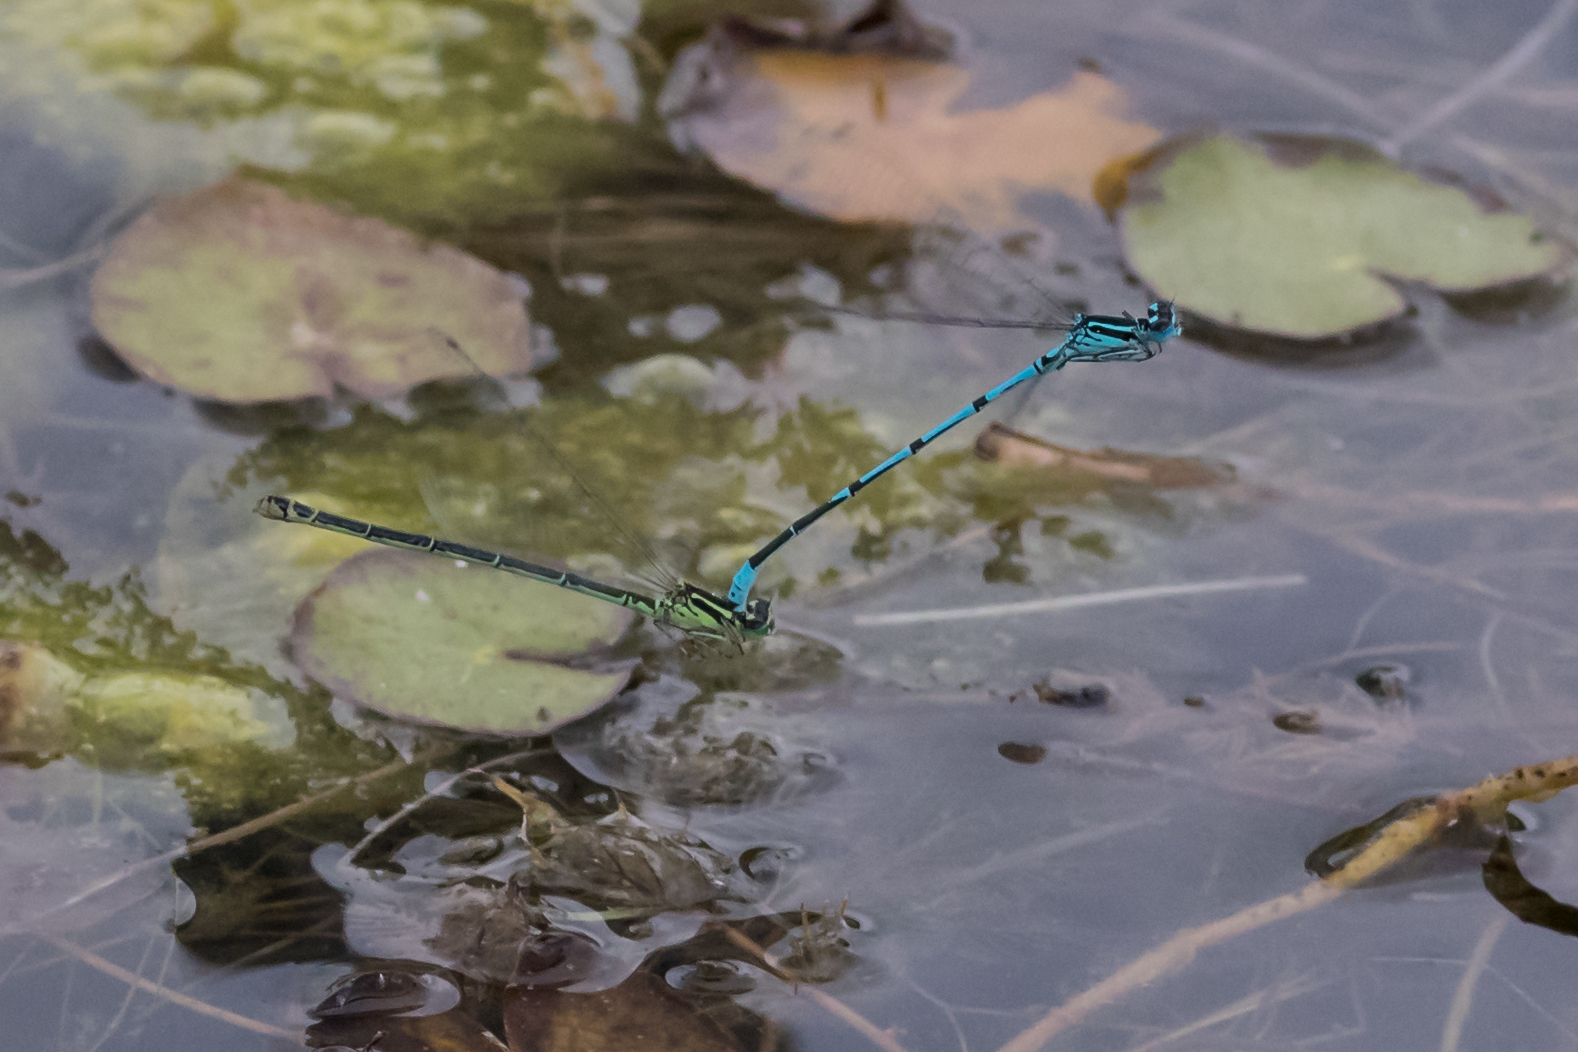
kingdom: Animalia
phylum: Arthropoda
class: Insecta
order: Odonata
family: Coenagrionidae
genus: Coenagrion
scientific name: Coenagrion puella
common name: Azure damselfly
